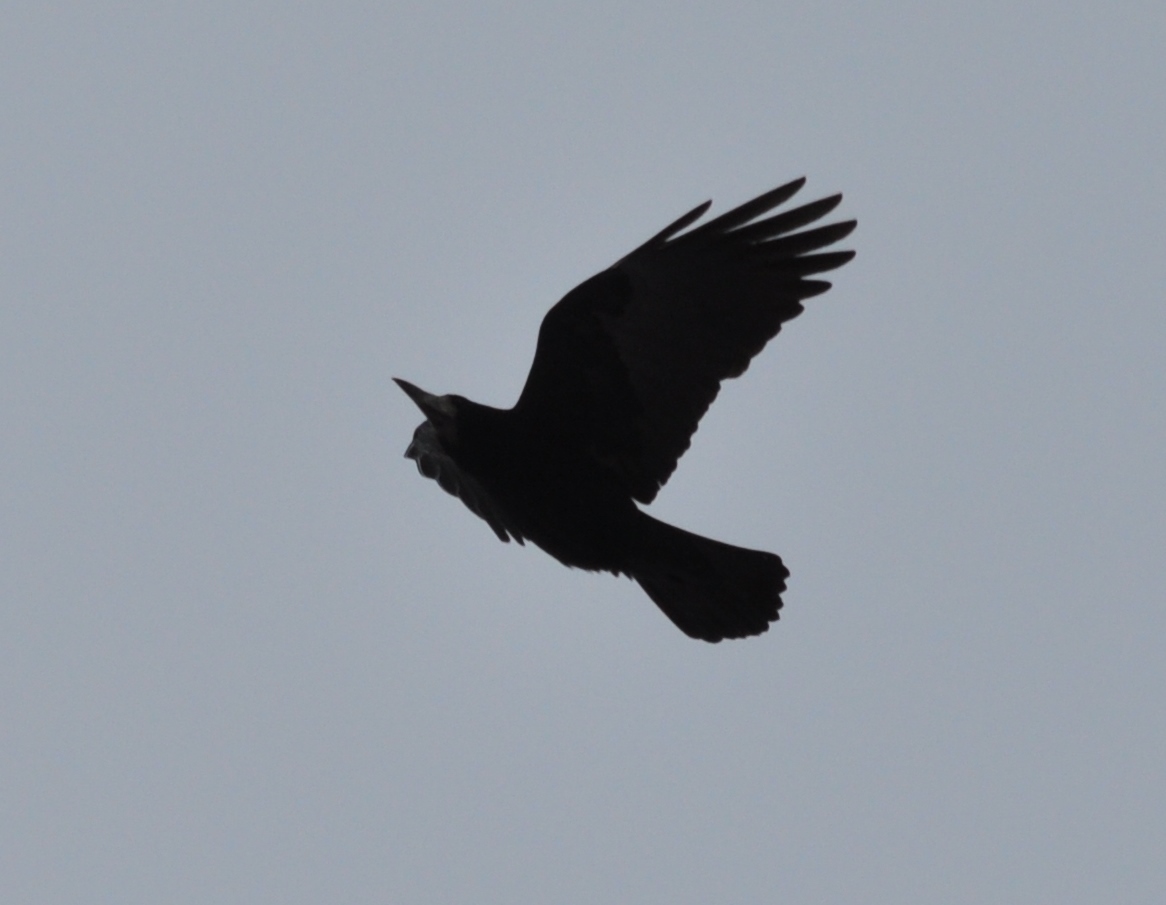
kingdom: Animalia
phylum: Chordata
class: Aves
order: Passeriformes
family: Corvidae
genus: Corvus
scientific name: Corvus frugilegus
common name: Rook
